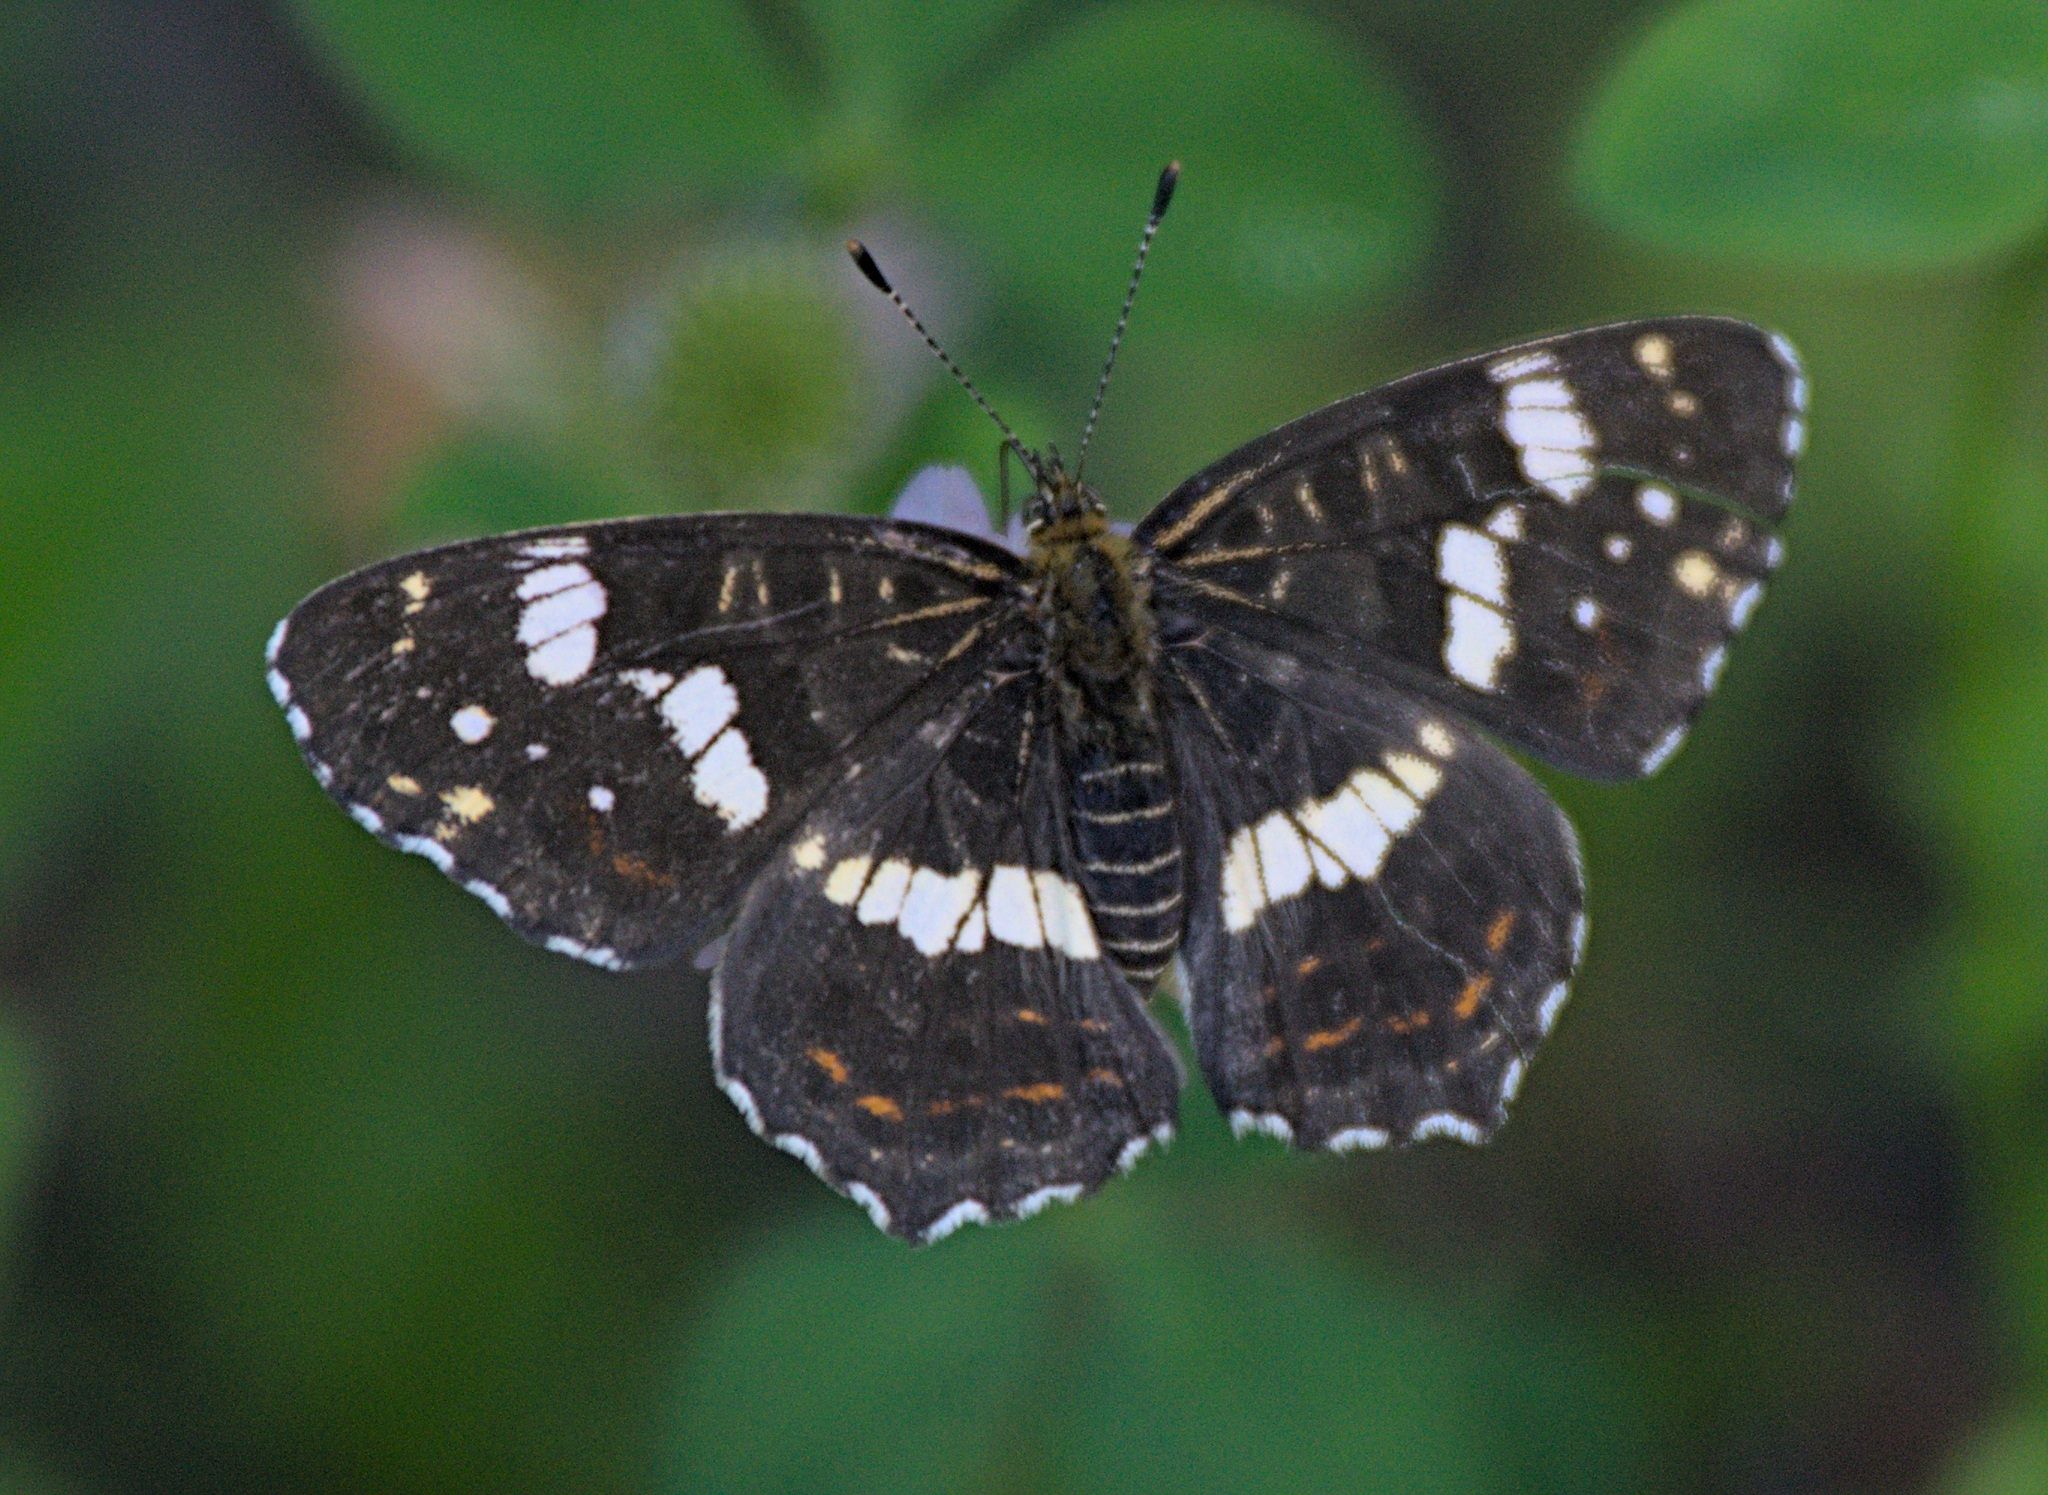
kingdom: Animalia
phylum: Arthropoda
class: Insecta
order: Lepidoptera
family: Nymphalidae
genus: Araschnia
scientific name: Araschnia levana
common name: Map butterfly
